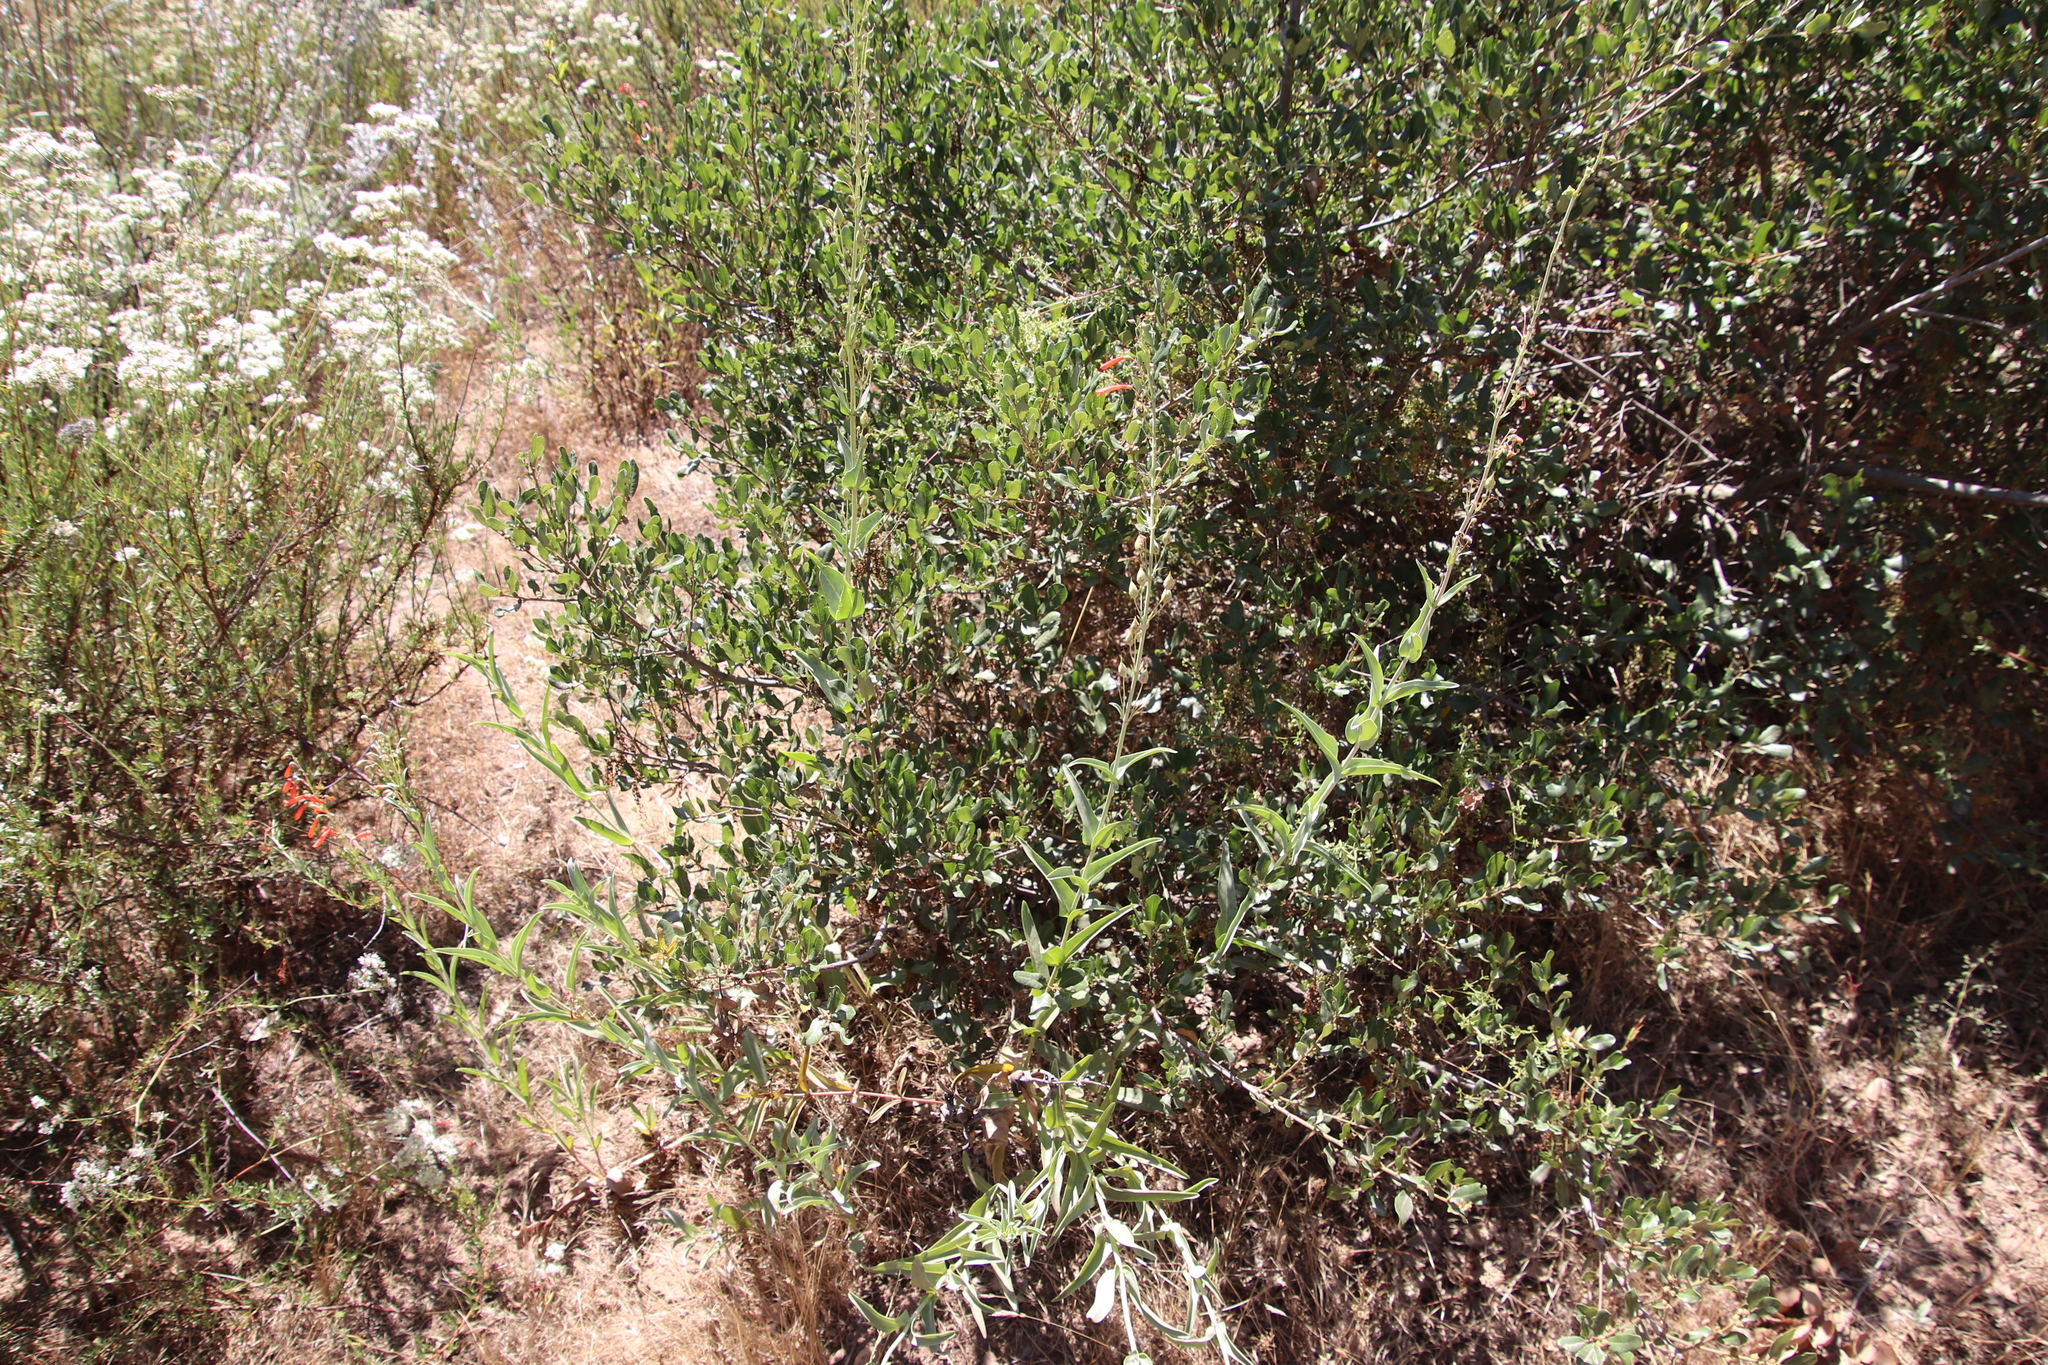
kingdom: Plantae
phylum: Tracheophyta
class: Magnoliopsida
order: Lamiales
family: Plantaginaceae
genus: Penstemon
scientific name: Penstemon centranthifolius
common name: Scarlet bugler
